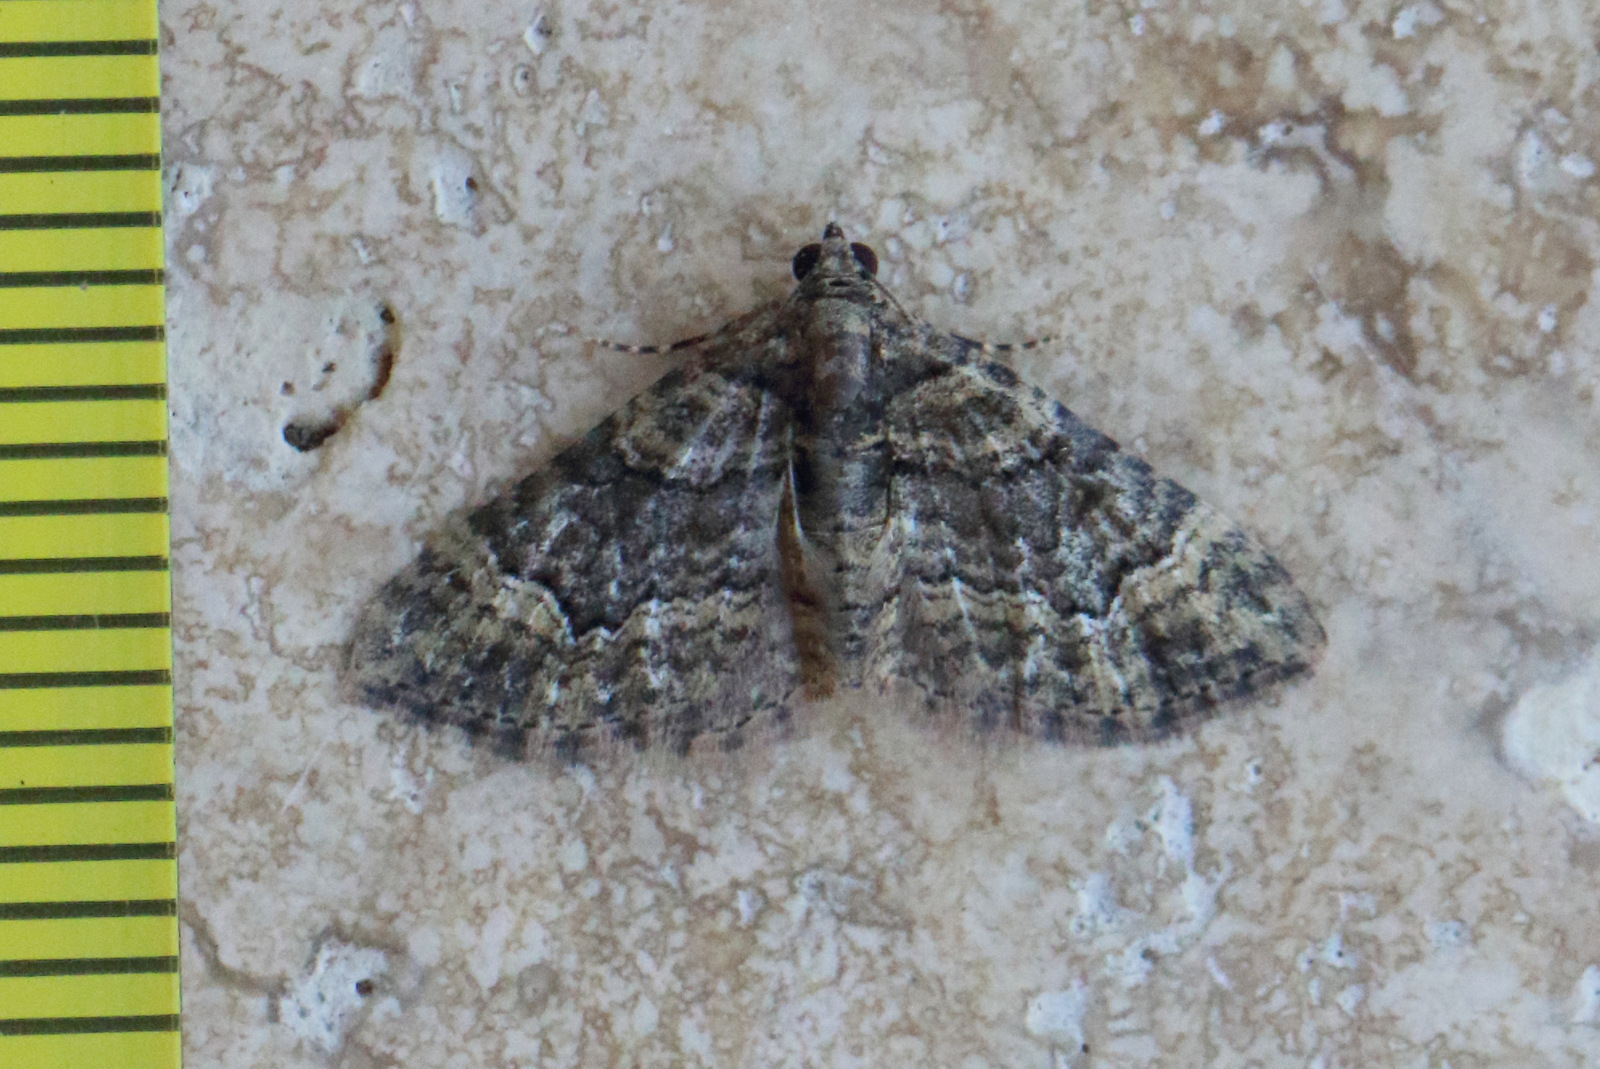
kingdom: Animalia
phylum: Arthropoda
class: Insecta
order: Lepidoptera
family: Geometridae
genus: Epyaxa
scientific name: Epyaxa sodaliata
